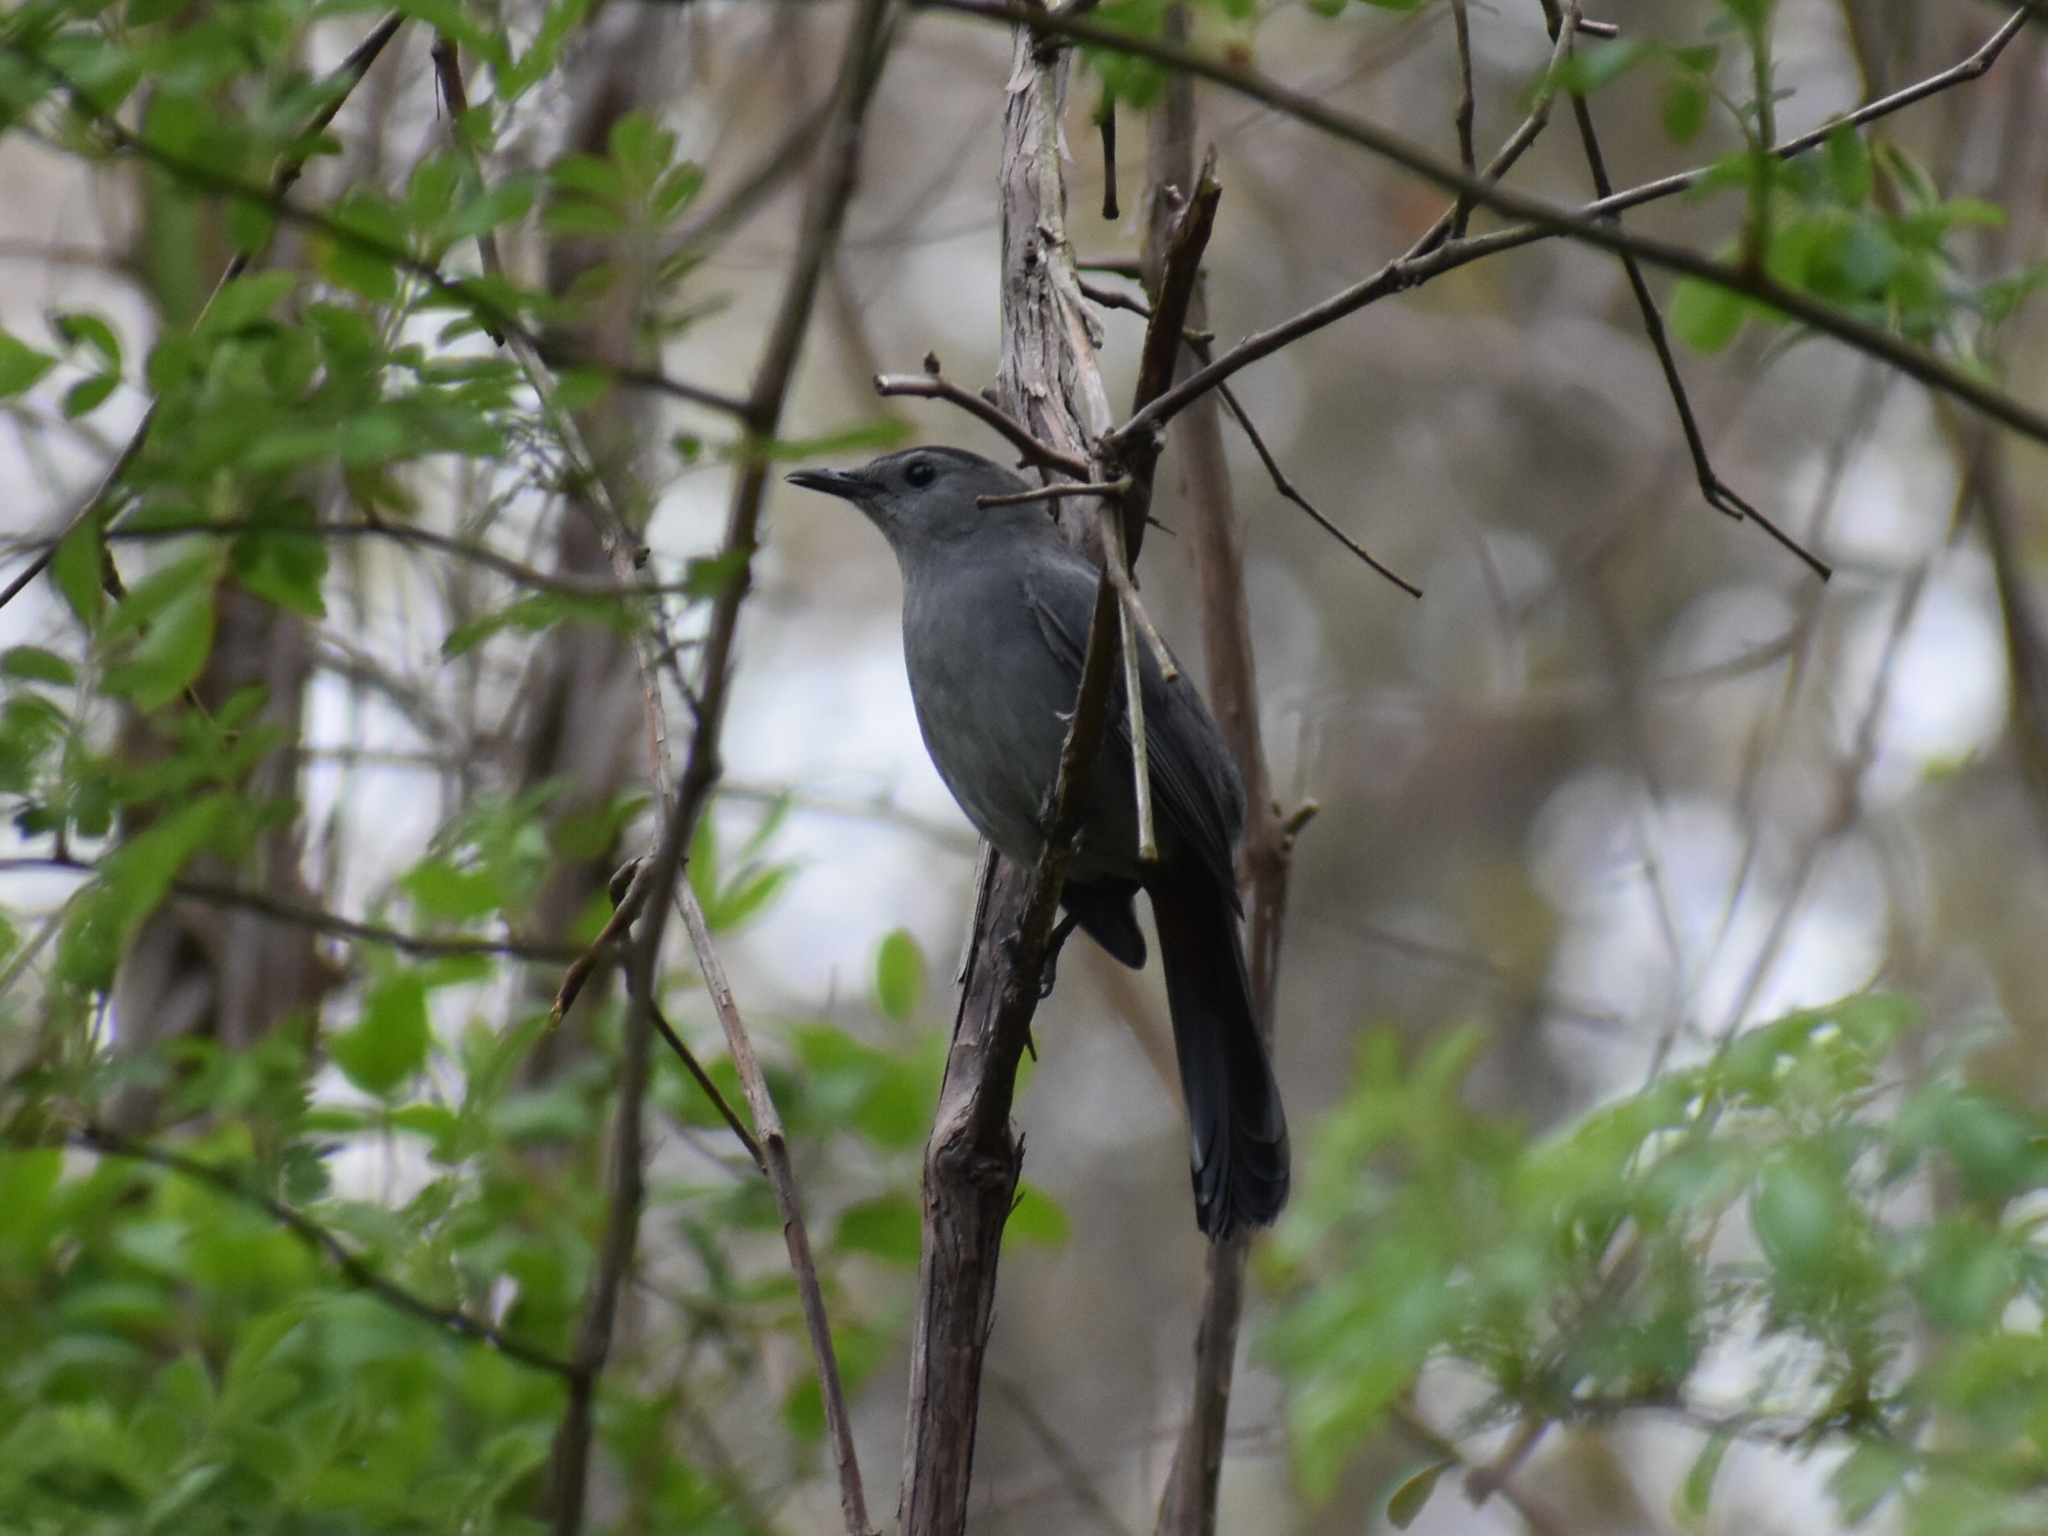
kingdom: Animalia
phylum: Chordata
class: Aves
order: Passeriformes
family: Mimidae
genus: Dumetella
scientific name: Dumetella carolinensis
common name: Gray catbird
